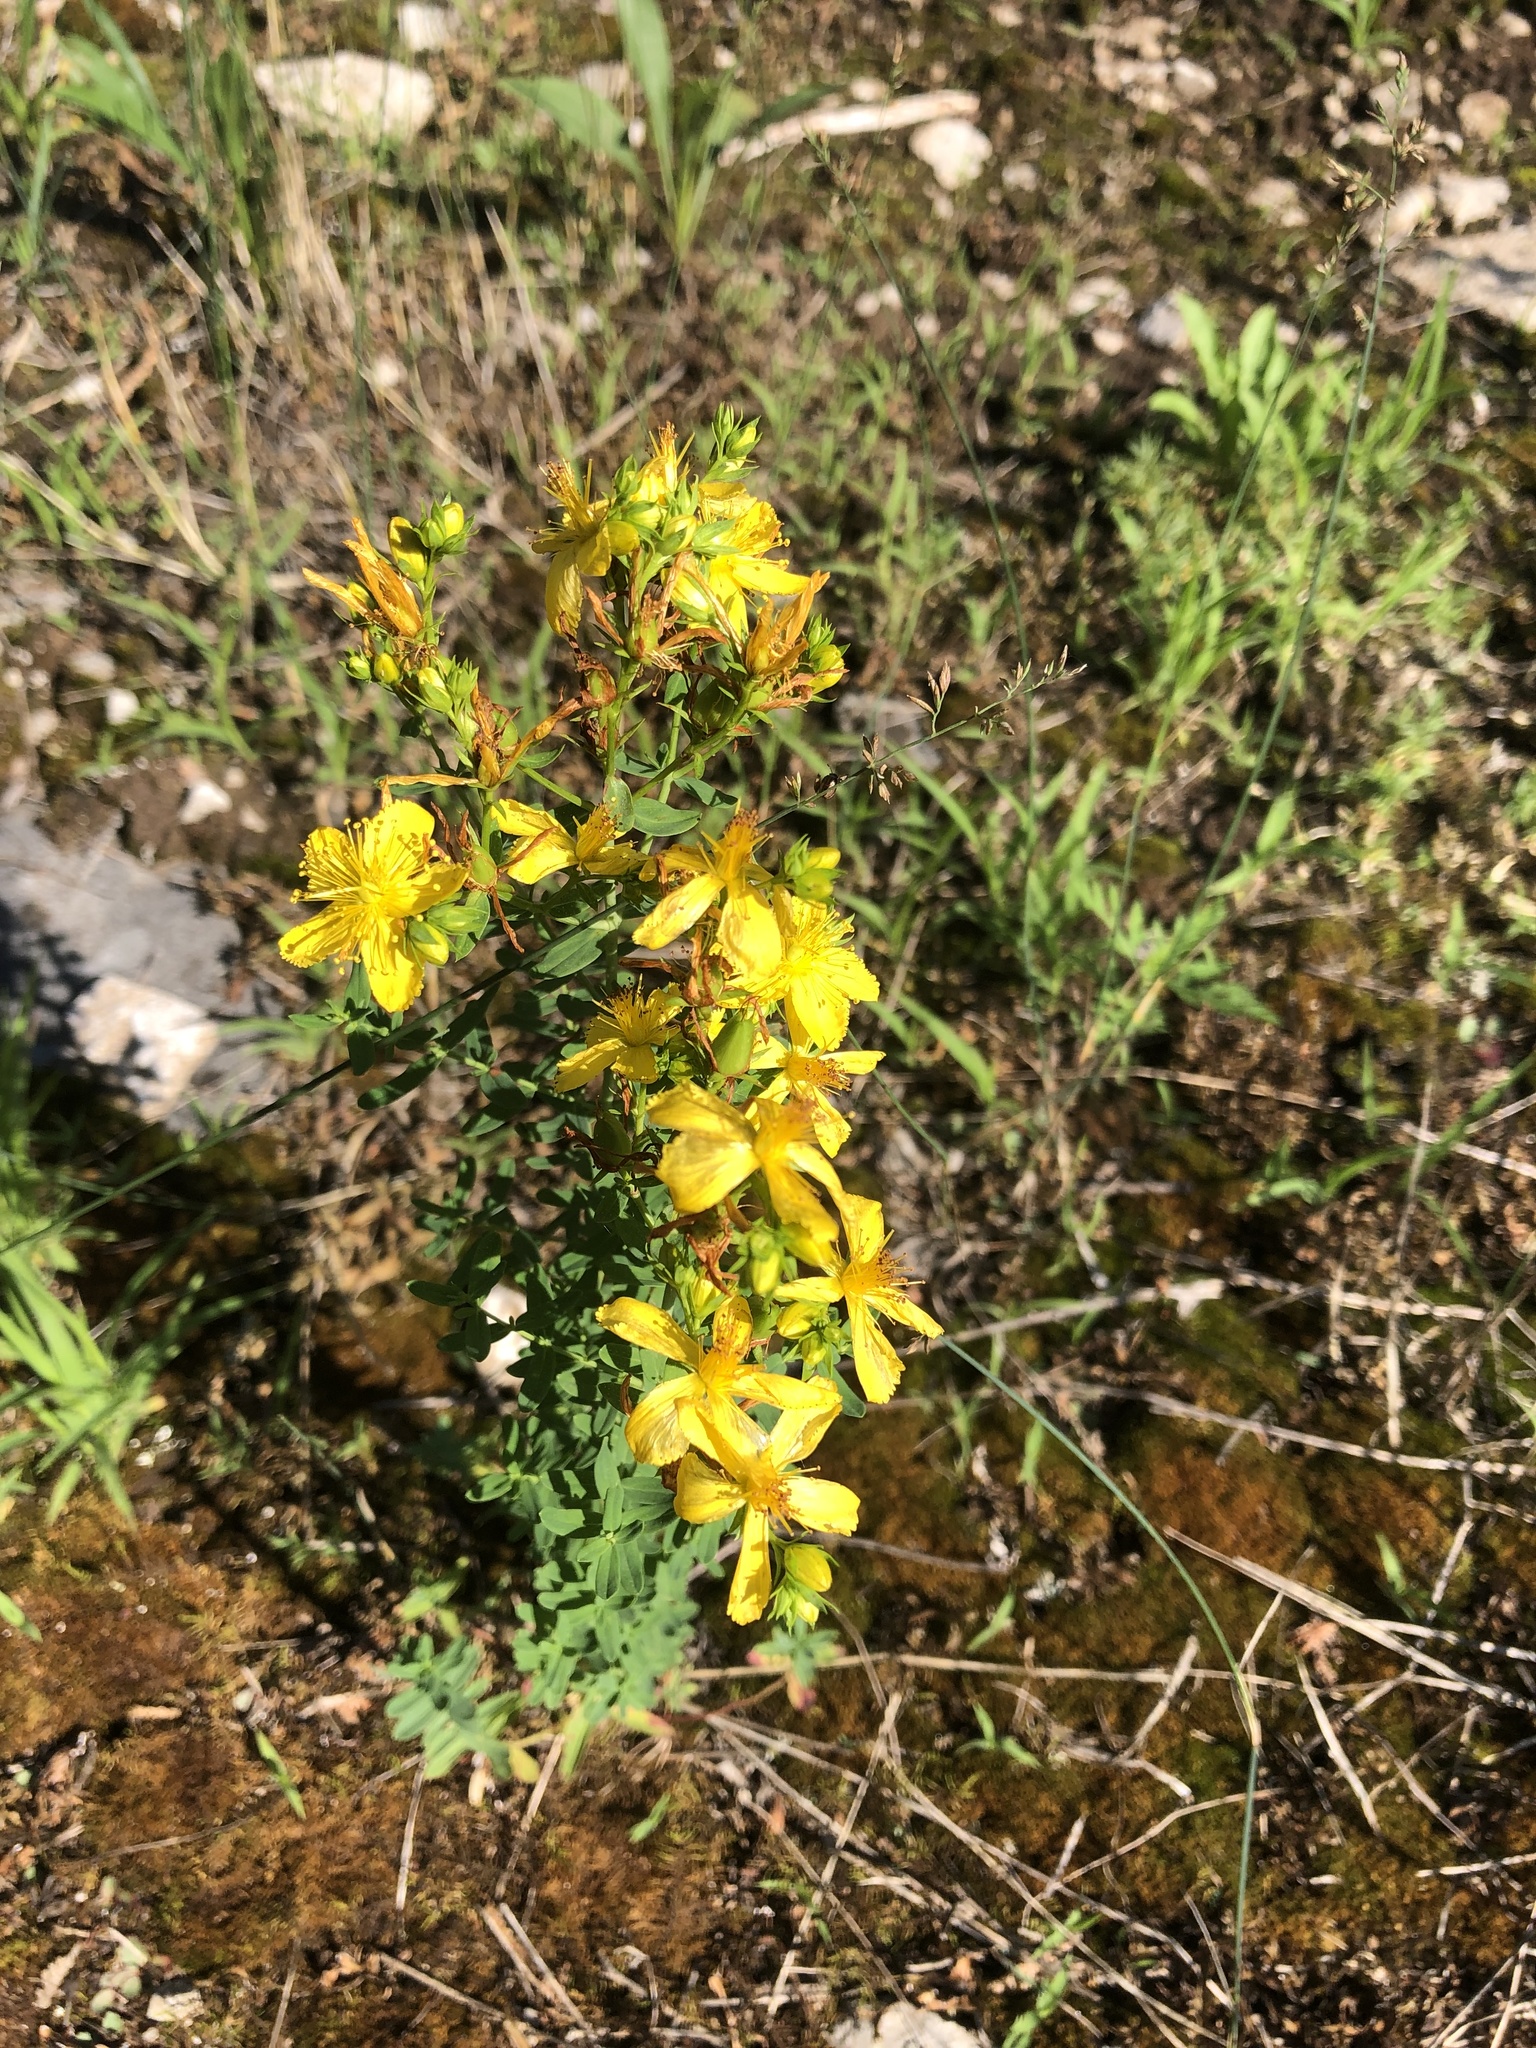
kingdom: Plantae
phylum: Tracheophyta
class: Magnoliopsida
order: Malpighiales
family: Hypericaceae
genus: Hypericum
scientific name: Hypericum perforatum
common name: Common st. johnswort
